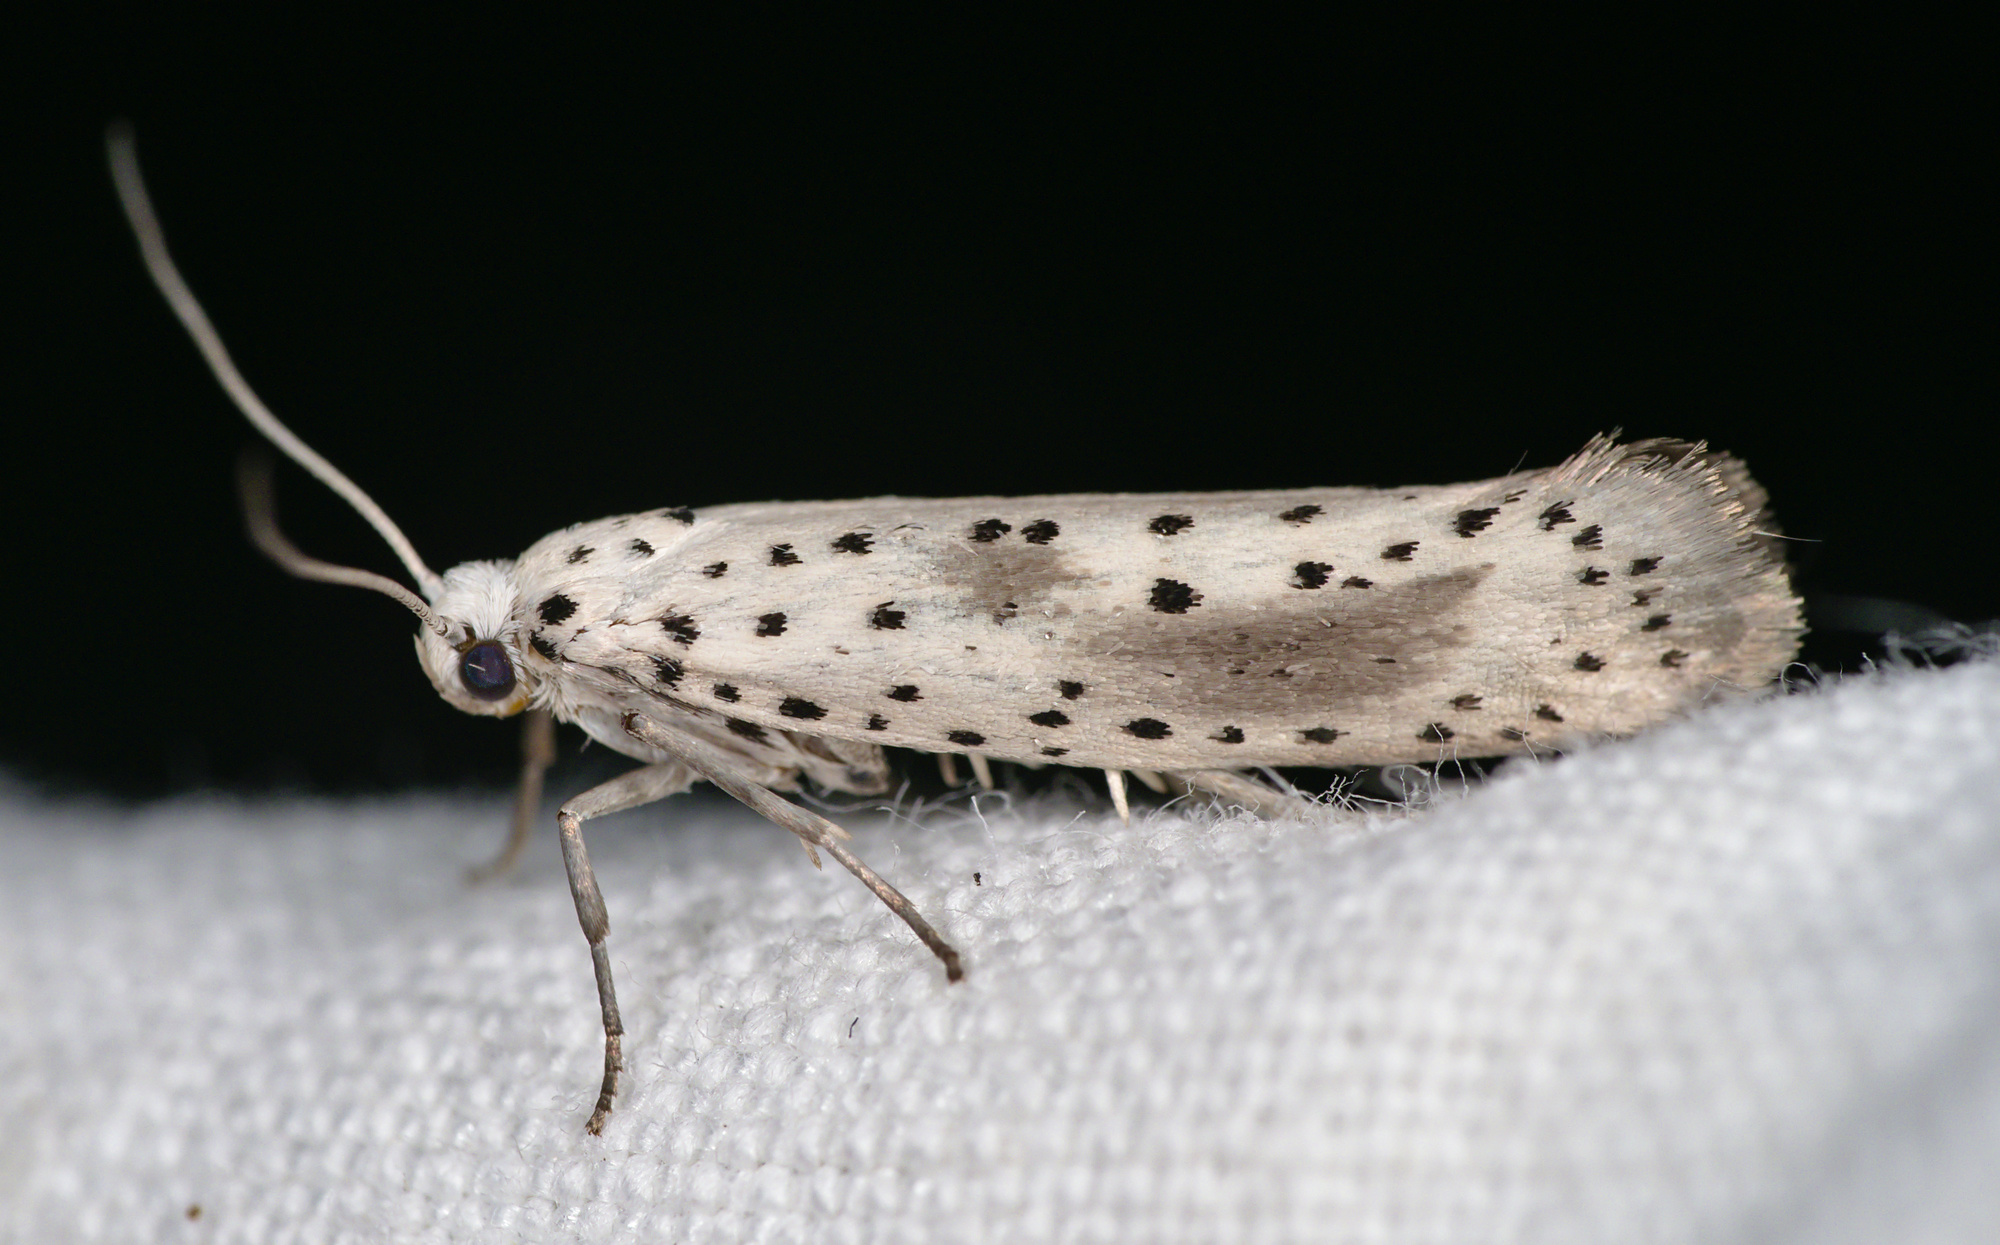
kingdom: Animalia
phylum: Arthropoda
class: Insecta
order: Lepidoptera
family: Yponomeutidae
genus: Yponomeuta
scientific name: Yponomeuta irrorella
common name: Scarce ermine
